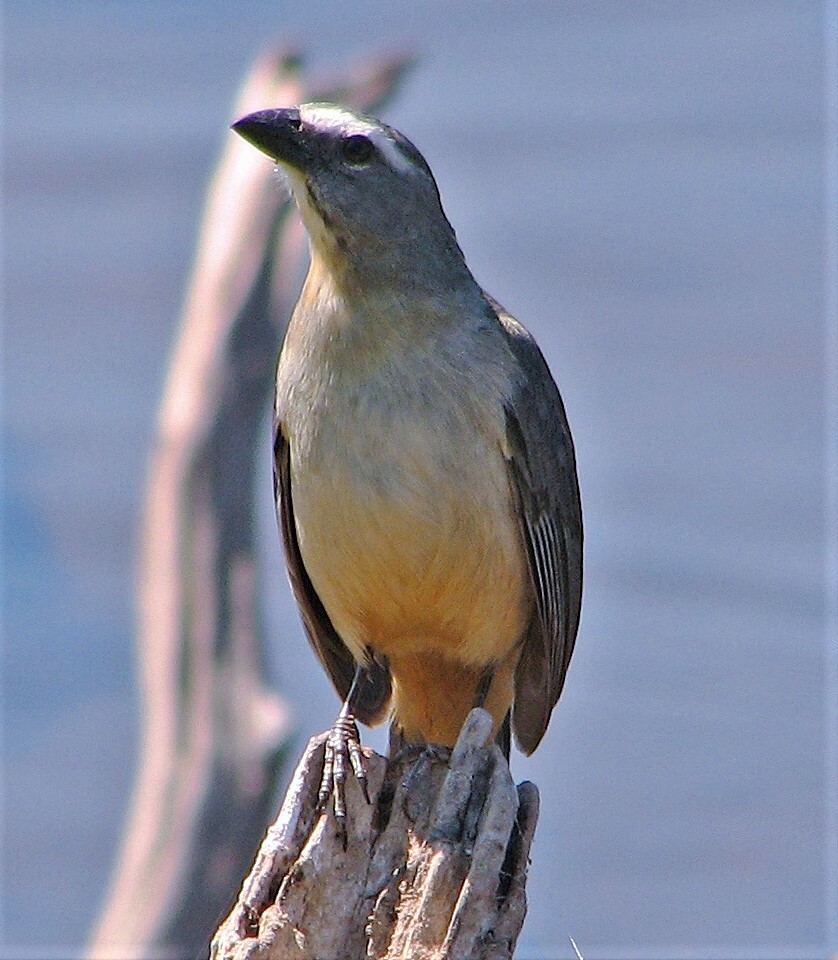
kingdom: Animalia
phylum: Chordata
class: Aves
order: Passeriformes
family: Thraupidae
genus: Saltator
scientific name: Saltator coerulescens
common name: Grayish saltator
